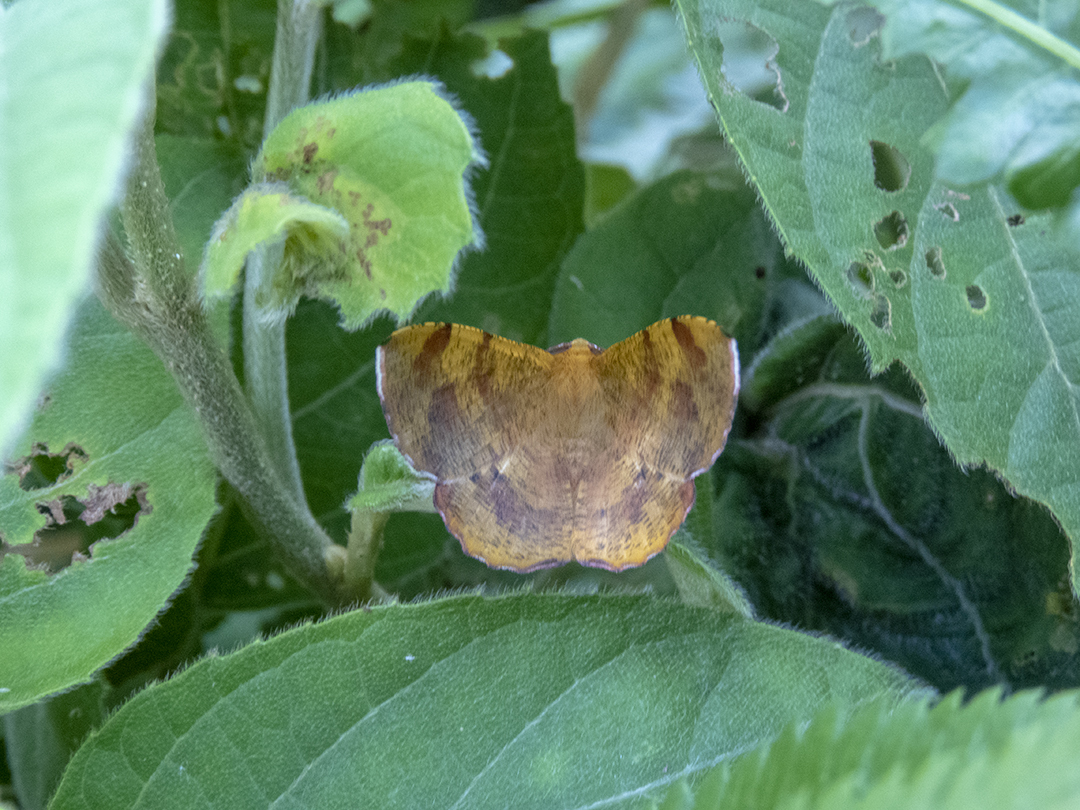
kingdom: Animalia
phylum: Arthropoda
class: Insecta
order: Lepidoptera
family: Geometridae
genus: Hyperythra
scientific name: Hyperythra lutea
